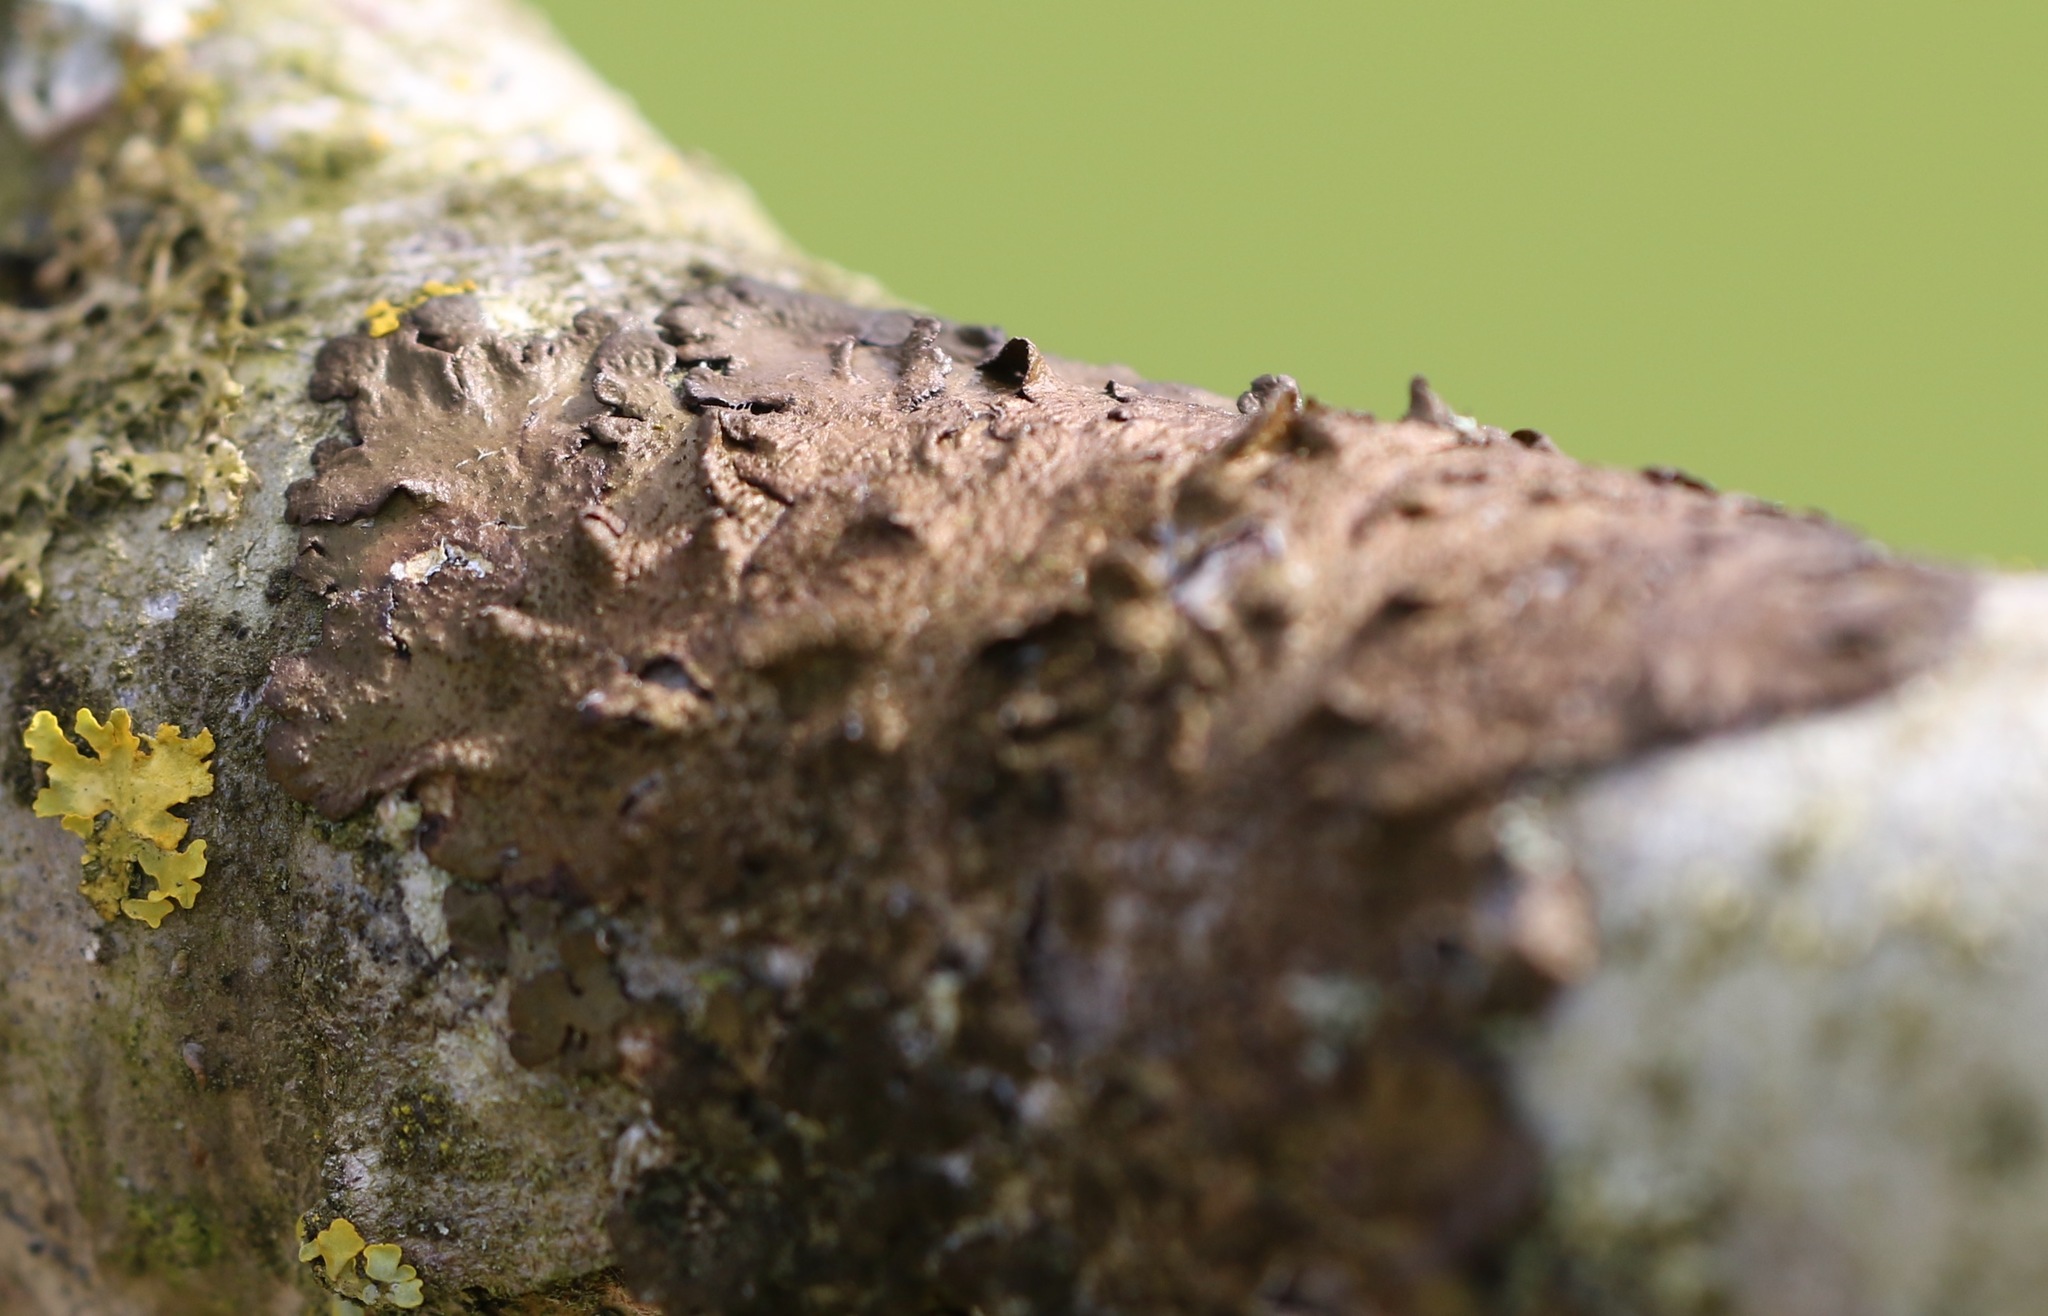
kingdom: Fungi
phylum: Ascomycota
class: Lecanoromycetes
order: Lecanorales
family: Parmeliaceae
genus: Melanelixia
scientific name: Melanelixia subaurifera
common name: Abraded camouflage lichen
